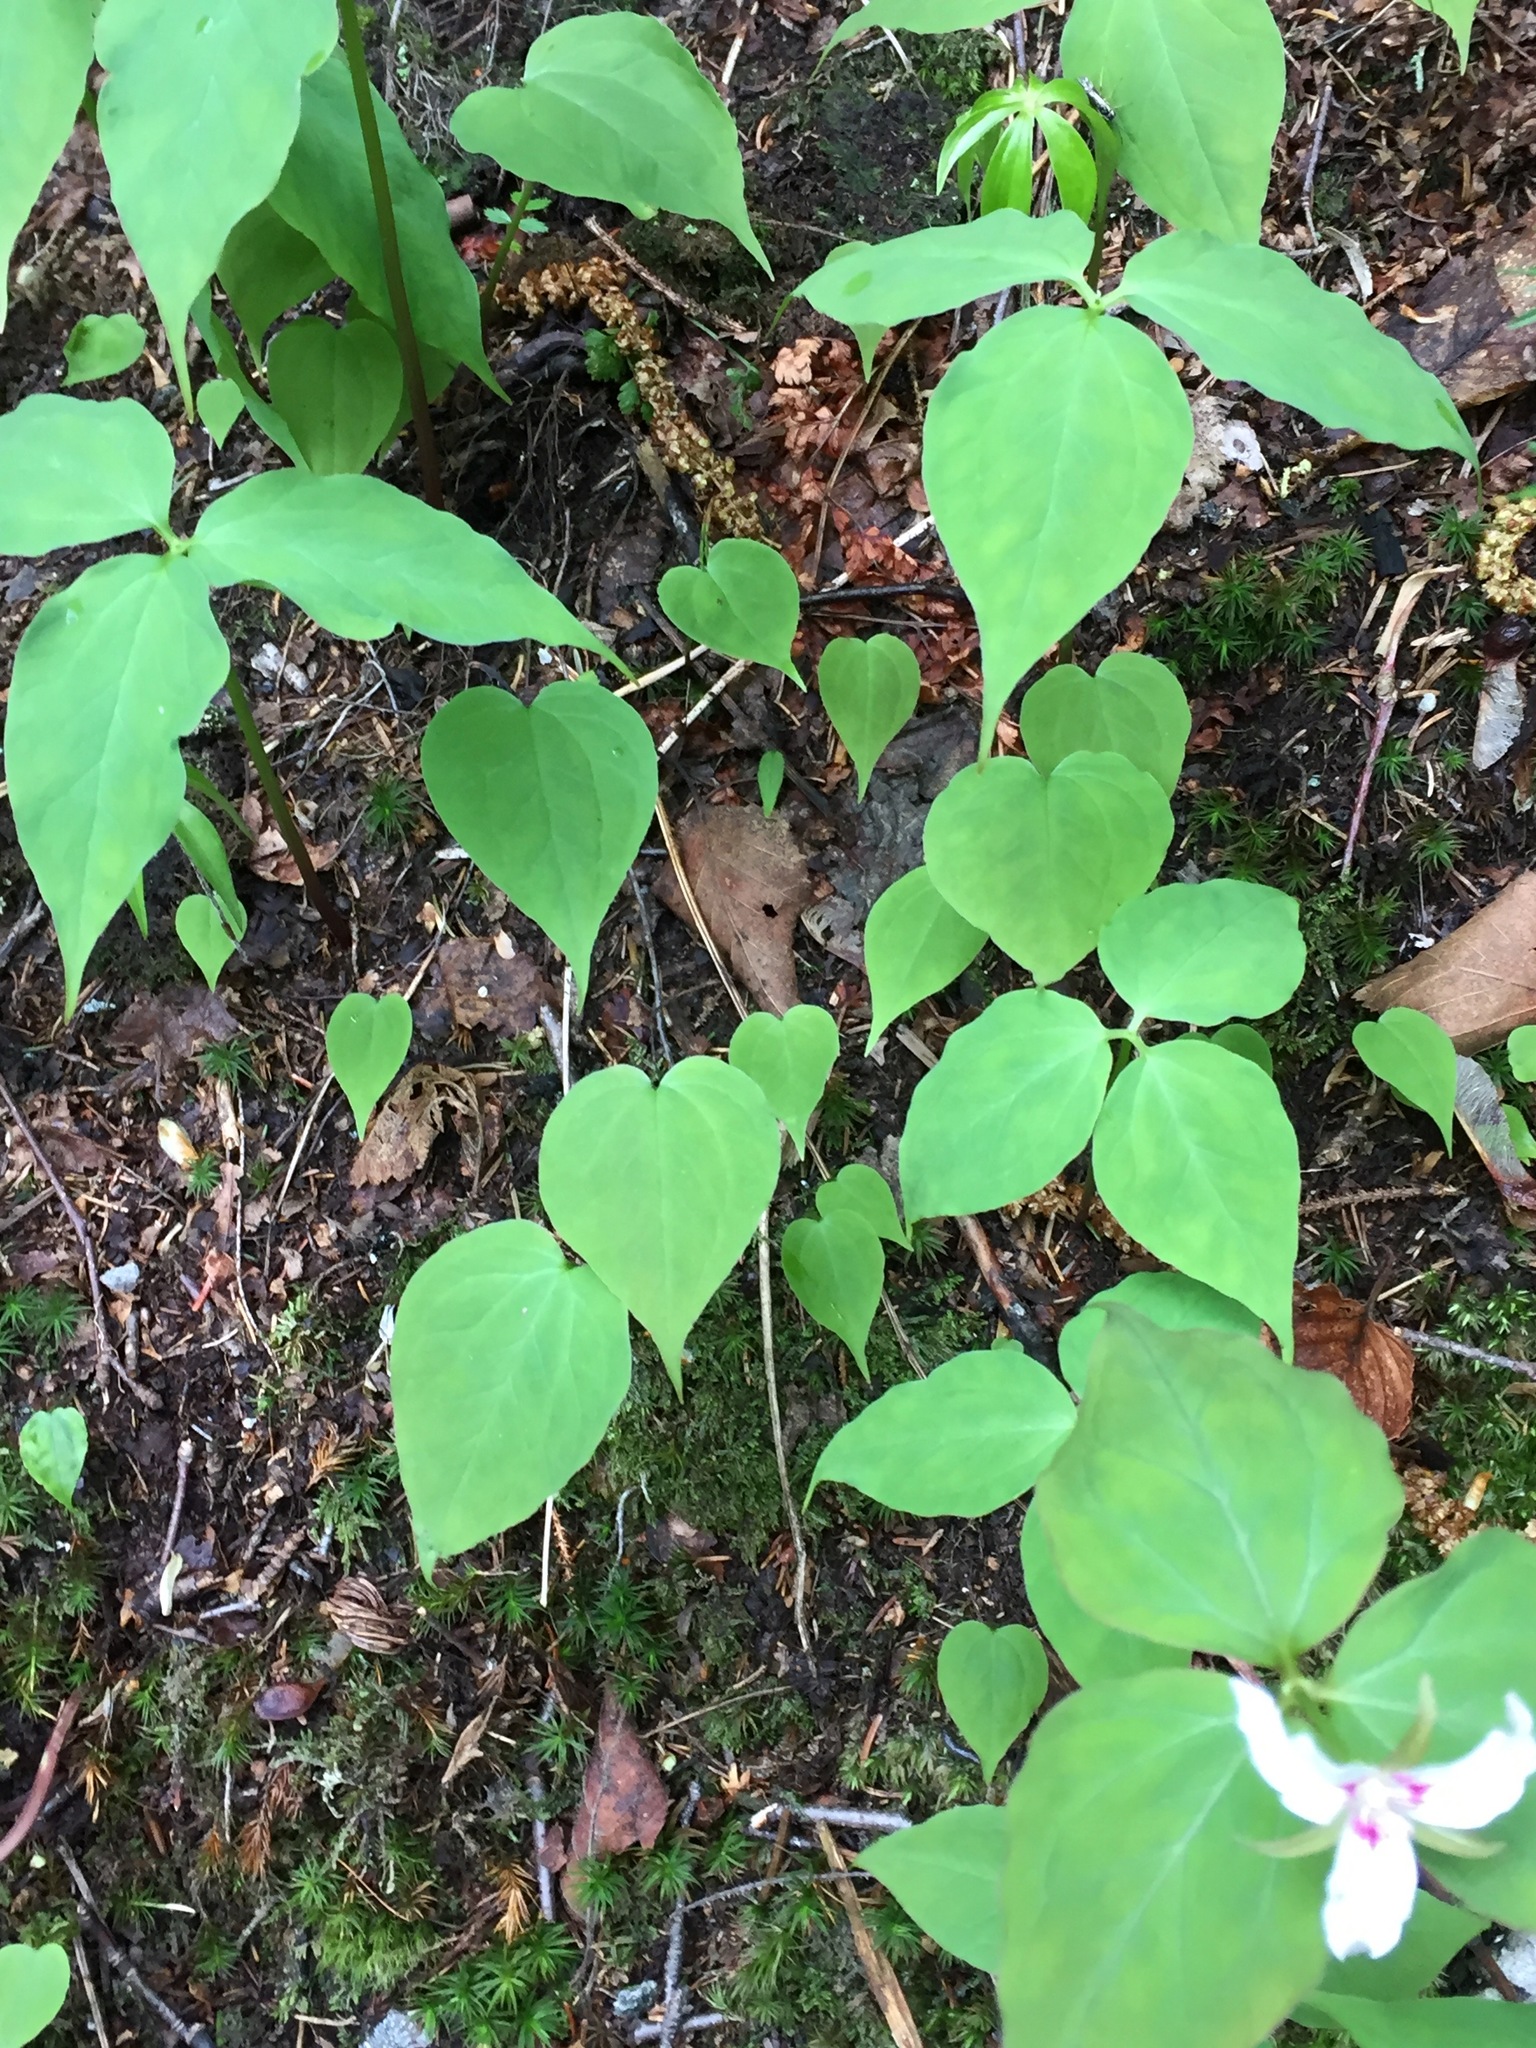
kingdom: Plantae
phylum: Tracheophyta
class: Liliopsida
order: Liliales
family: Melanthiaceae
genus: Trillium
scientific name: Trillium undulatum
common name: Paint trillium
